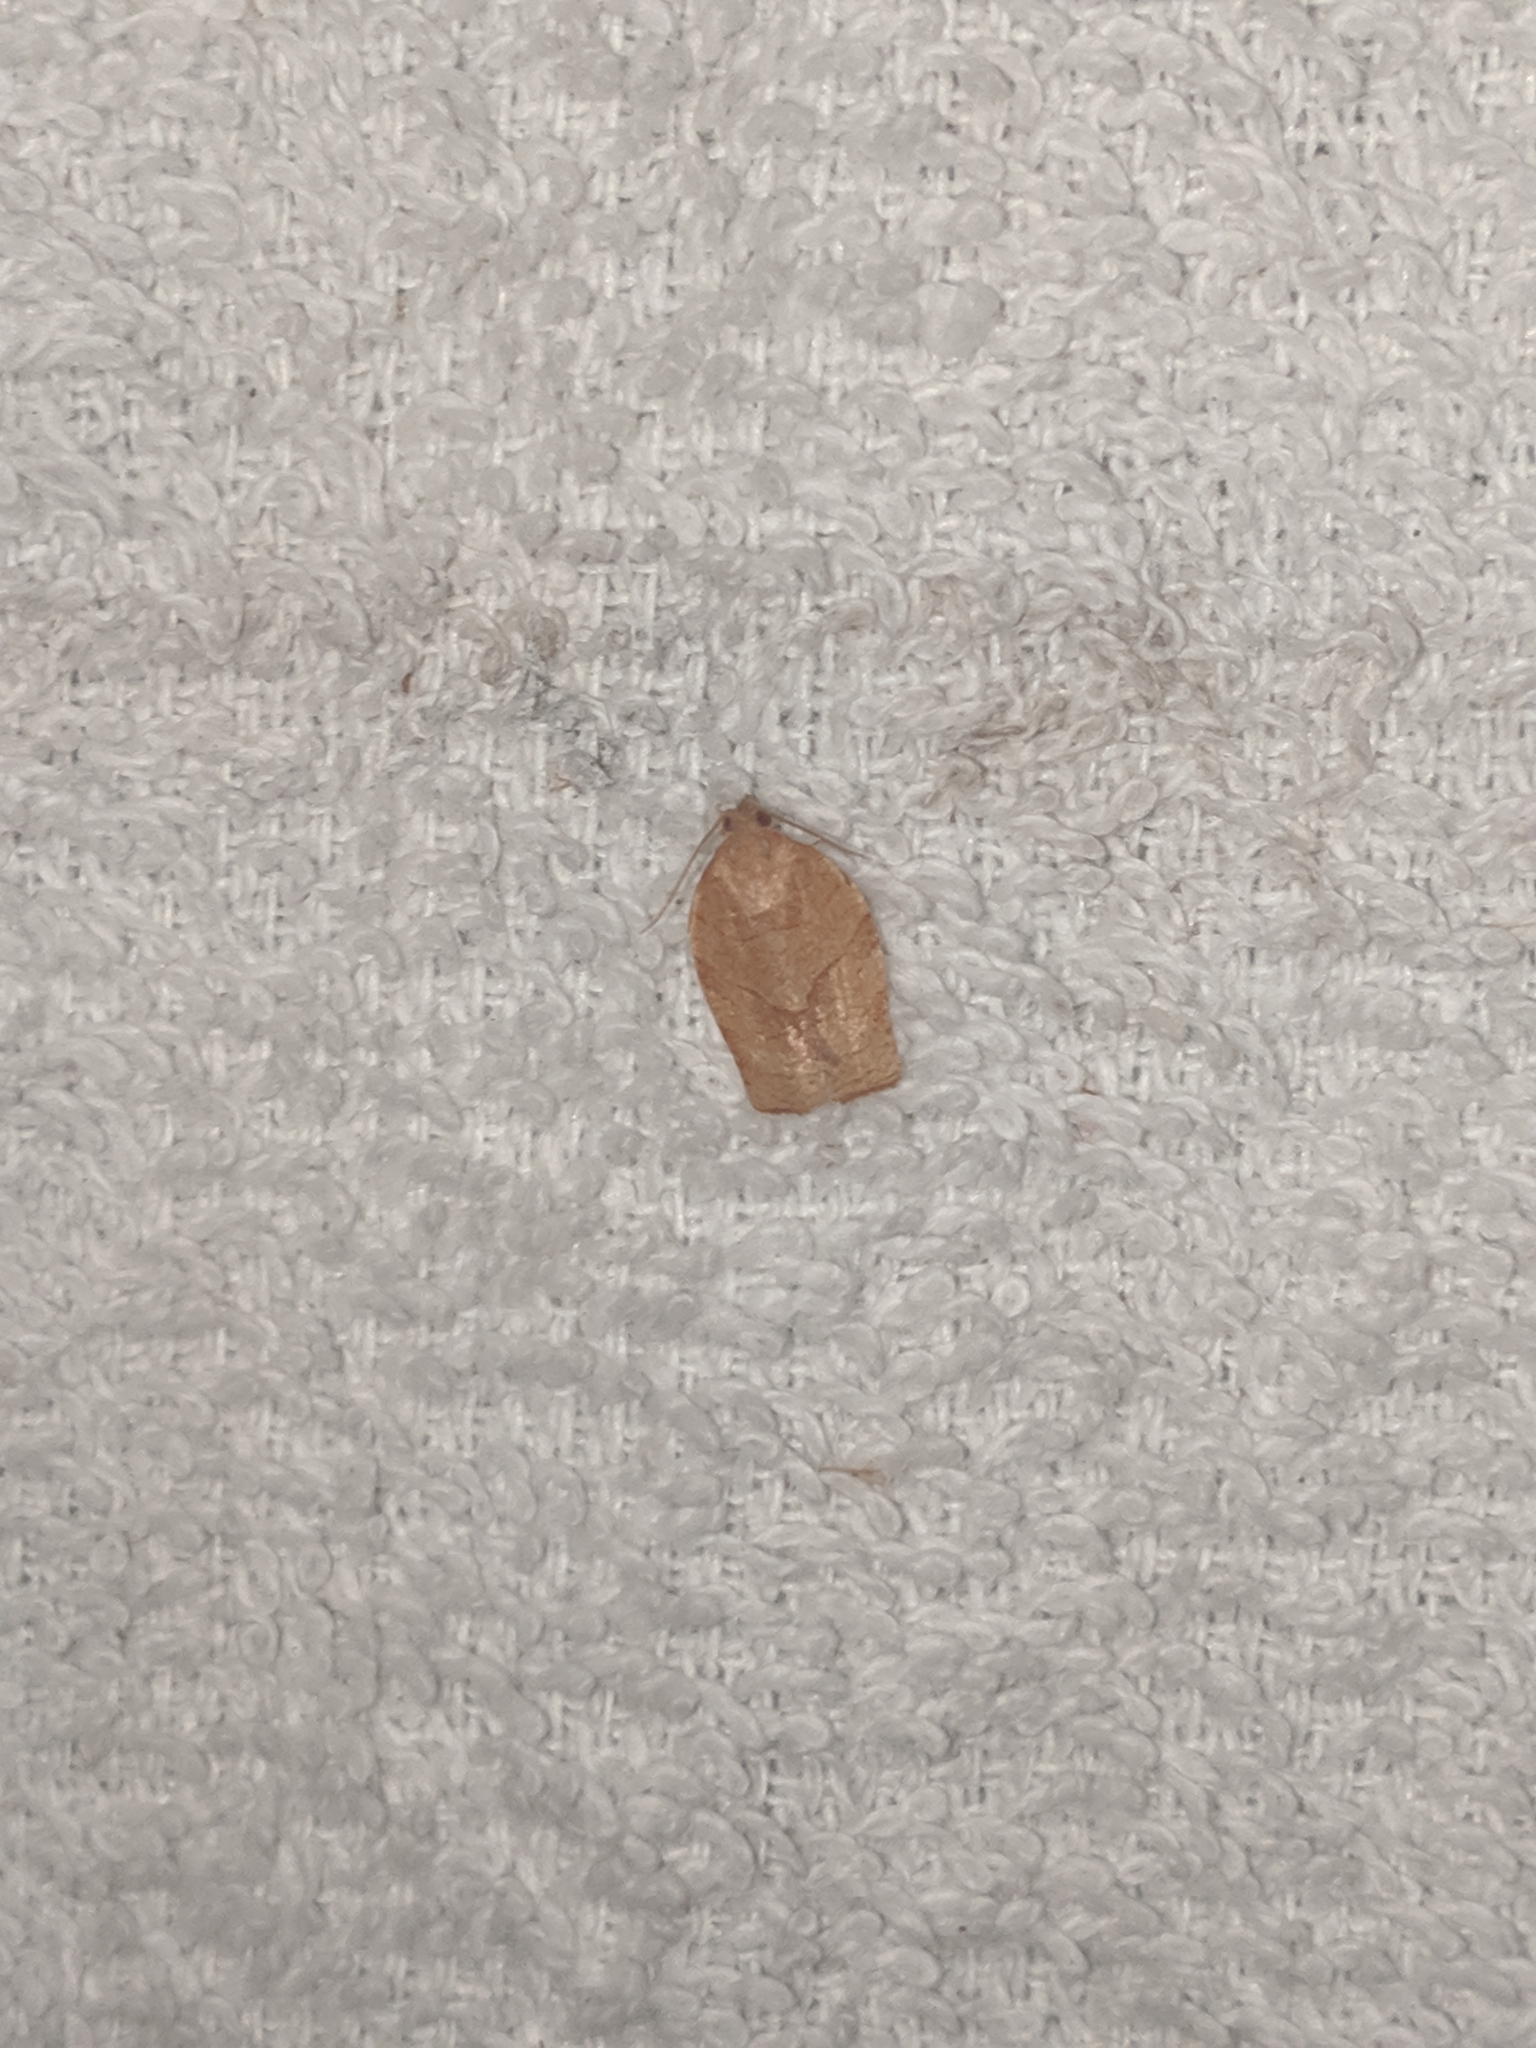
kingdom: Animalia
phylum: Arthropoda
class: Insecta
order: Lepidoptera
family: Tortricidae
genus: Choristoneura
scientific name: Choristoneura rosaceana
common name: Oblique-banded leafroller moth
